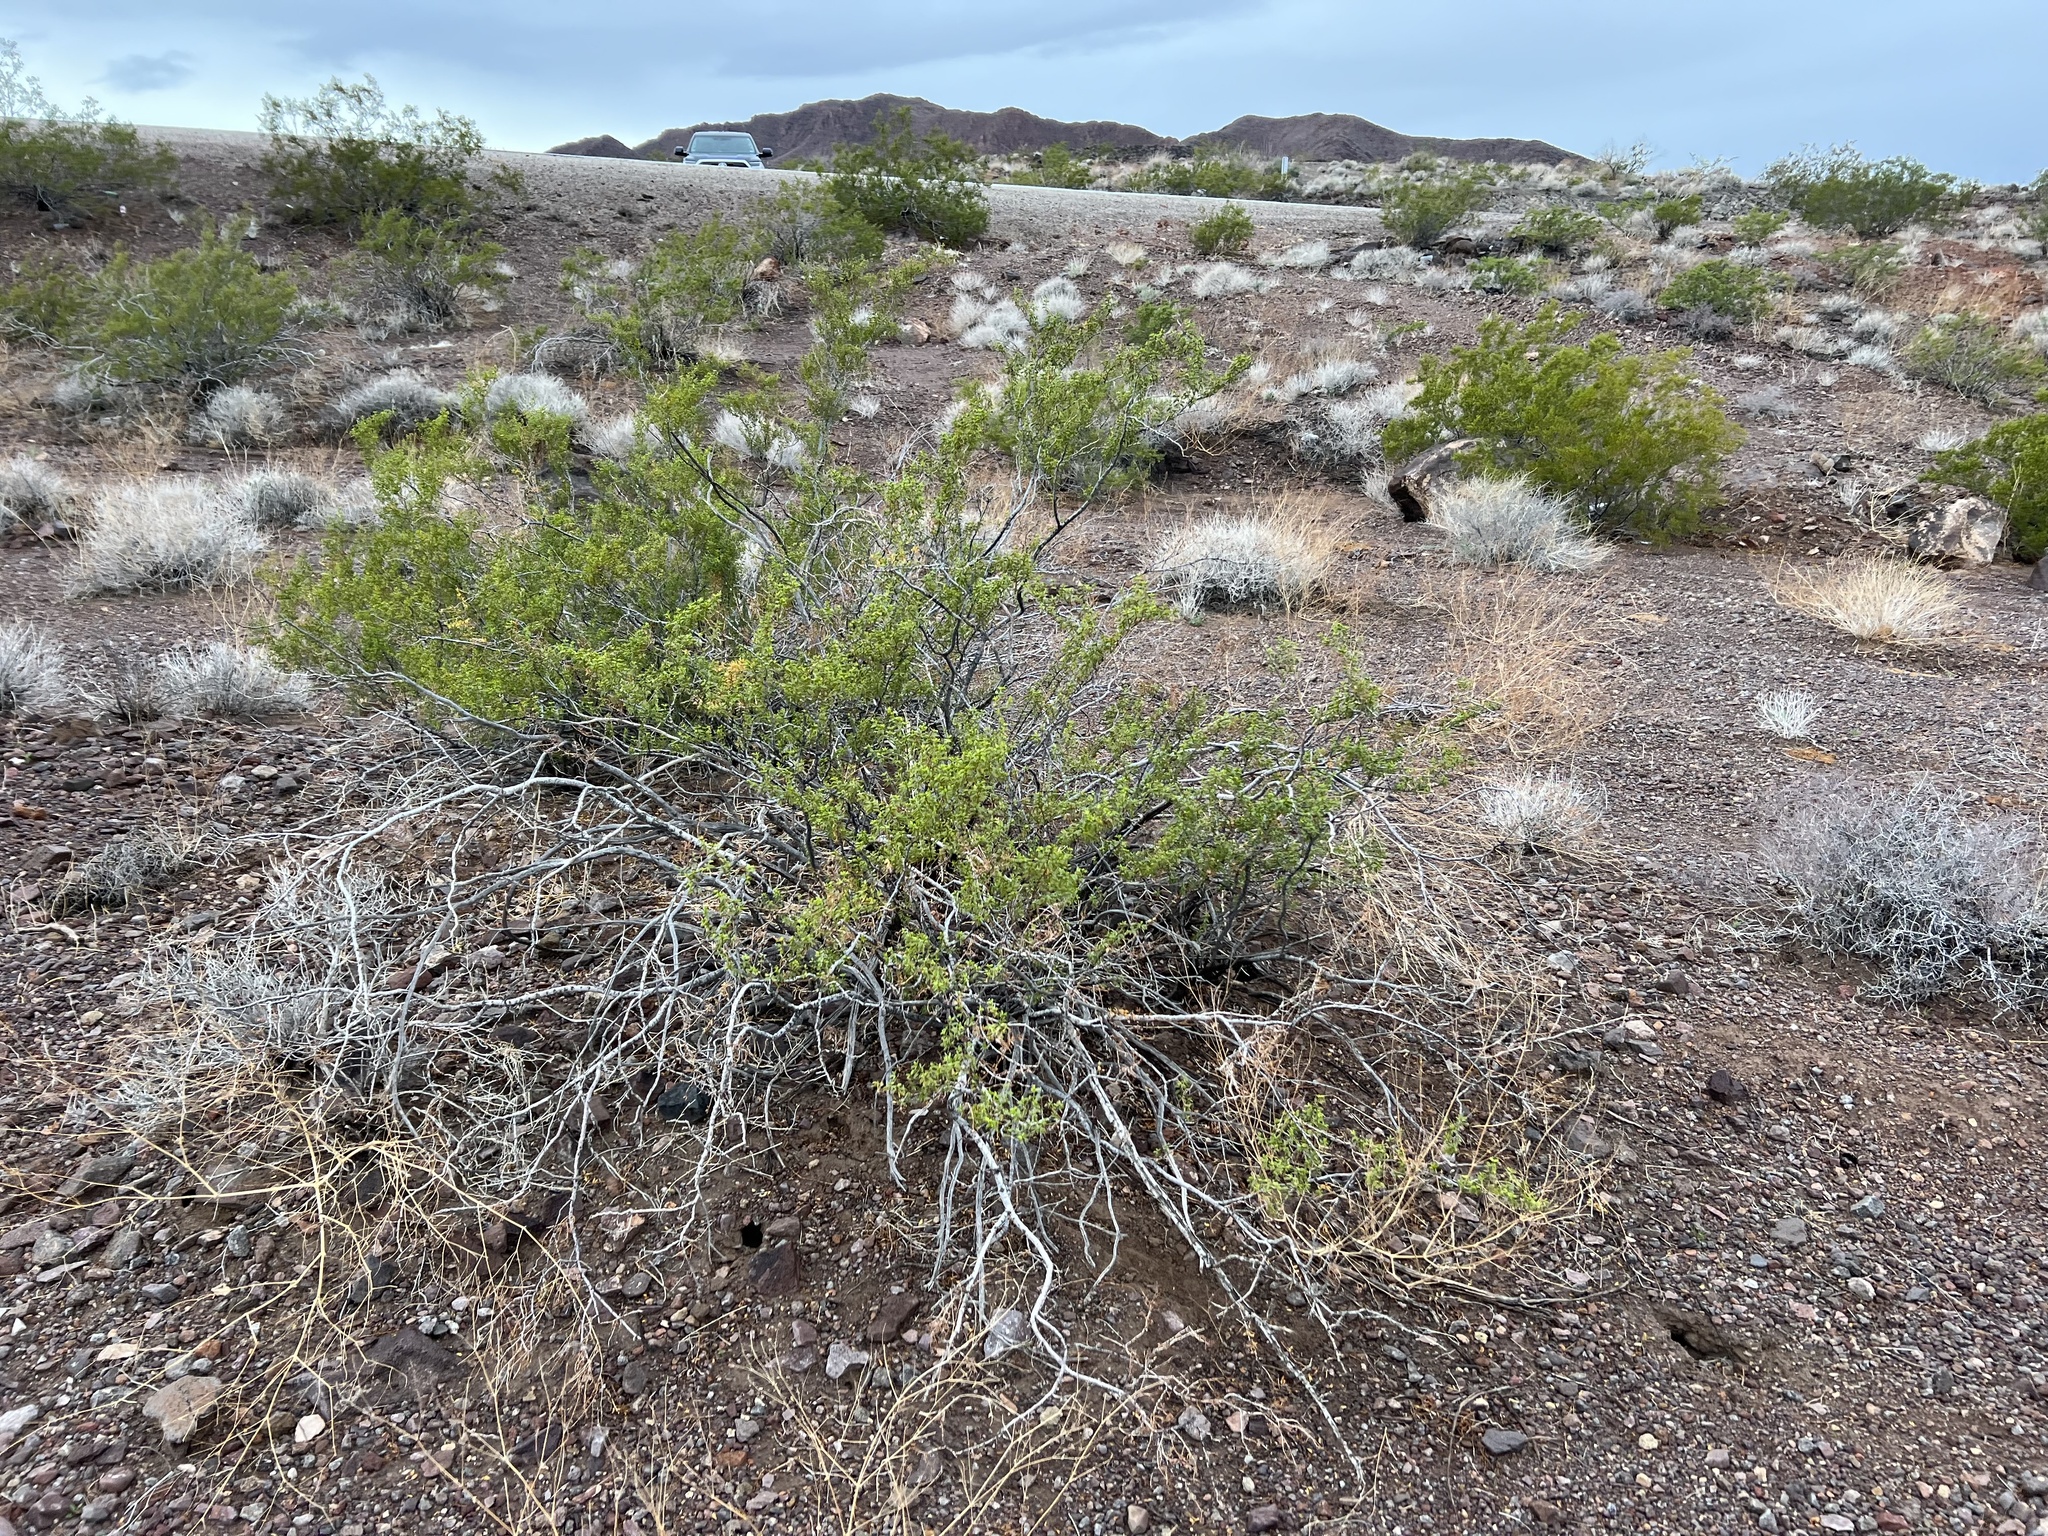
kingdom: Plantae
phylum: Tracheophyta
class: Magnoliopsida
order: Zygophyllales
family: Zygophyllaceae
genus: Larrea
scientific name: Larrea tridentata
